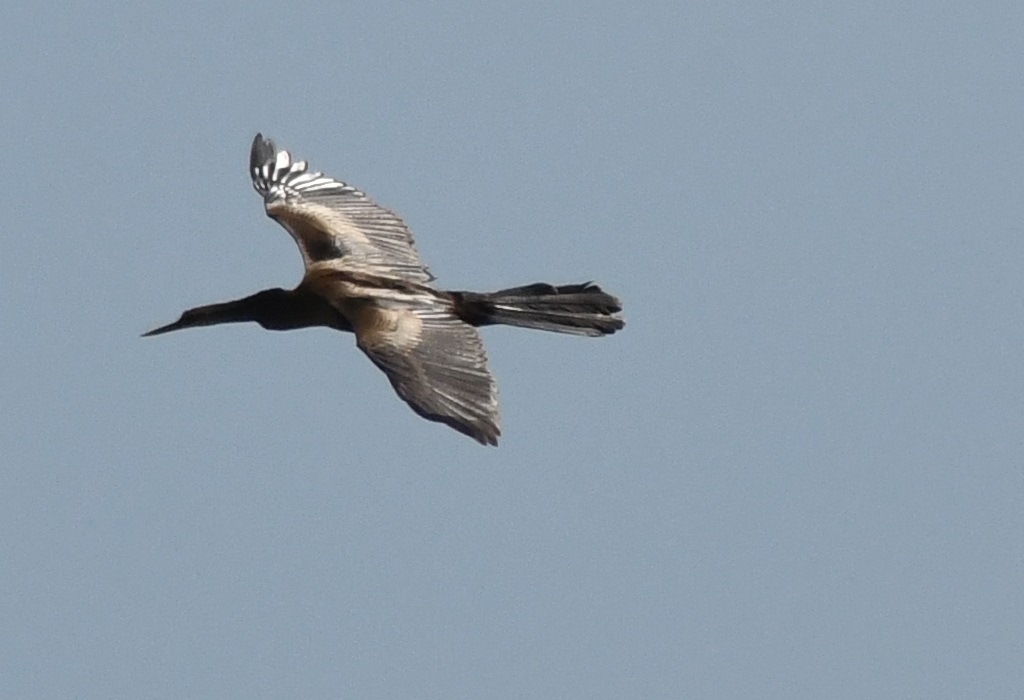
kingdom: Animalia
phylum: Chordata
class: Aves
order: Suliformes
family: Anhingidae
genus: Anhinga
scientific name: Anhinga anhinga
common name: Anhinga
